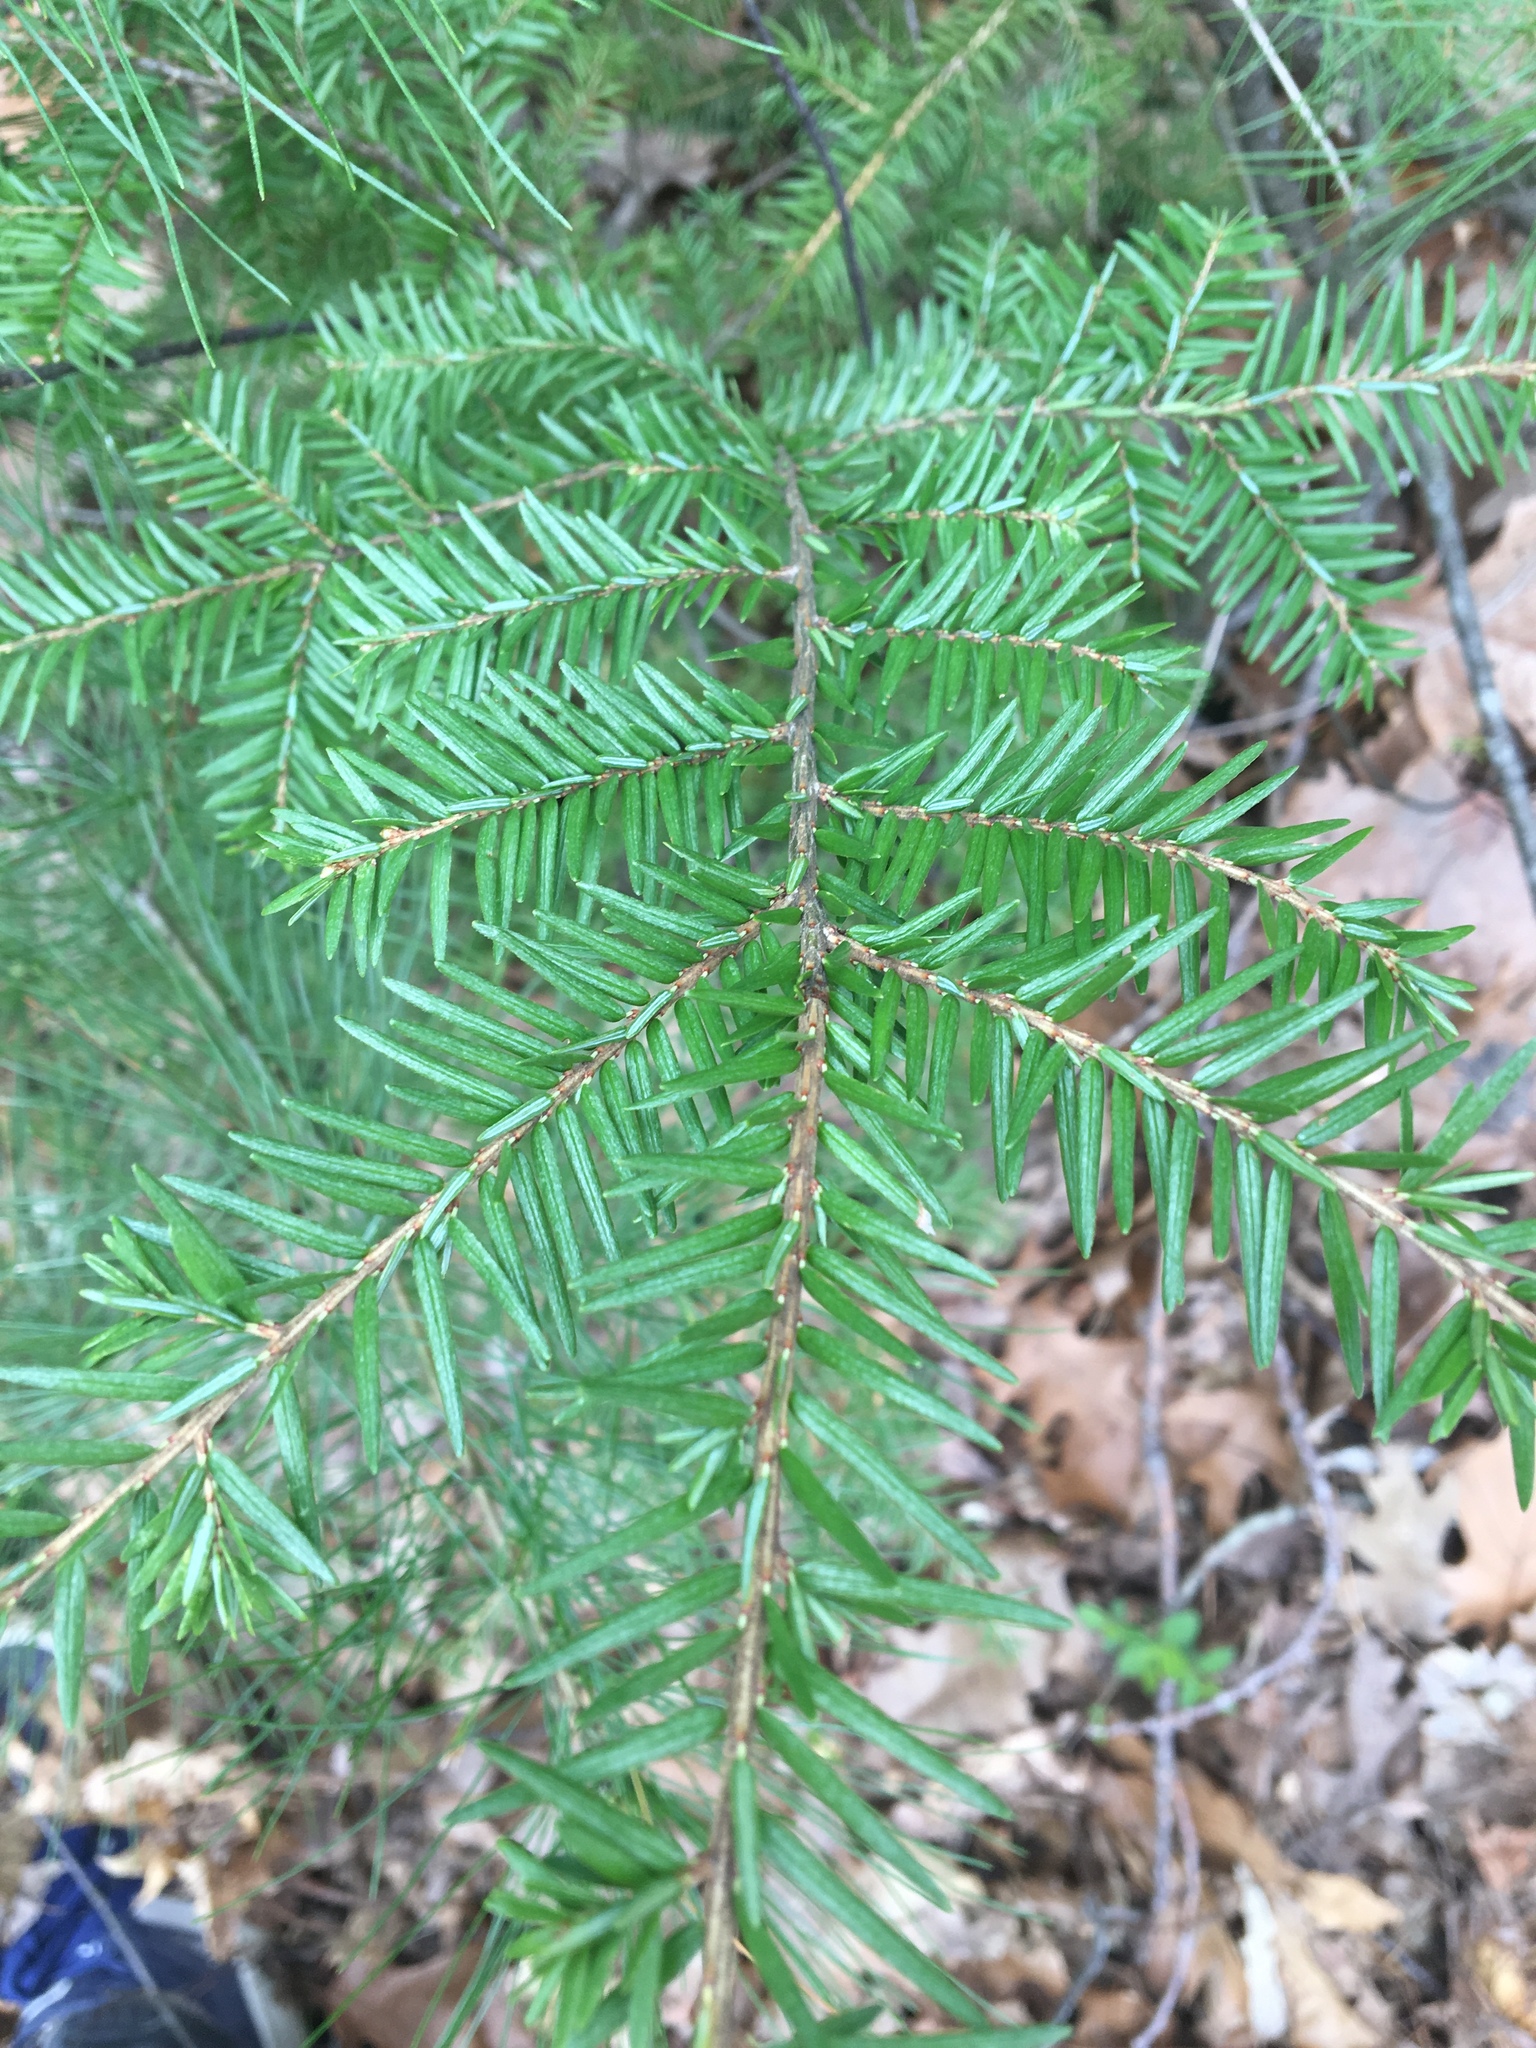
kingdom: Plantae
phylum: Tracheophyta
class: Pinopsida
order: Pinales
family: Pinaceae
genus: Tsuga
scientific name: Tsuga canadensis
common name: Eastern hemlock
